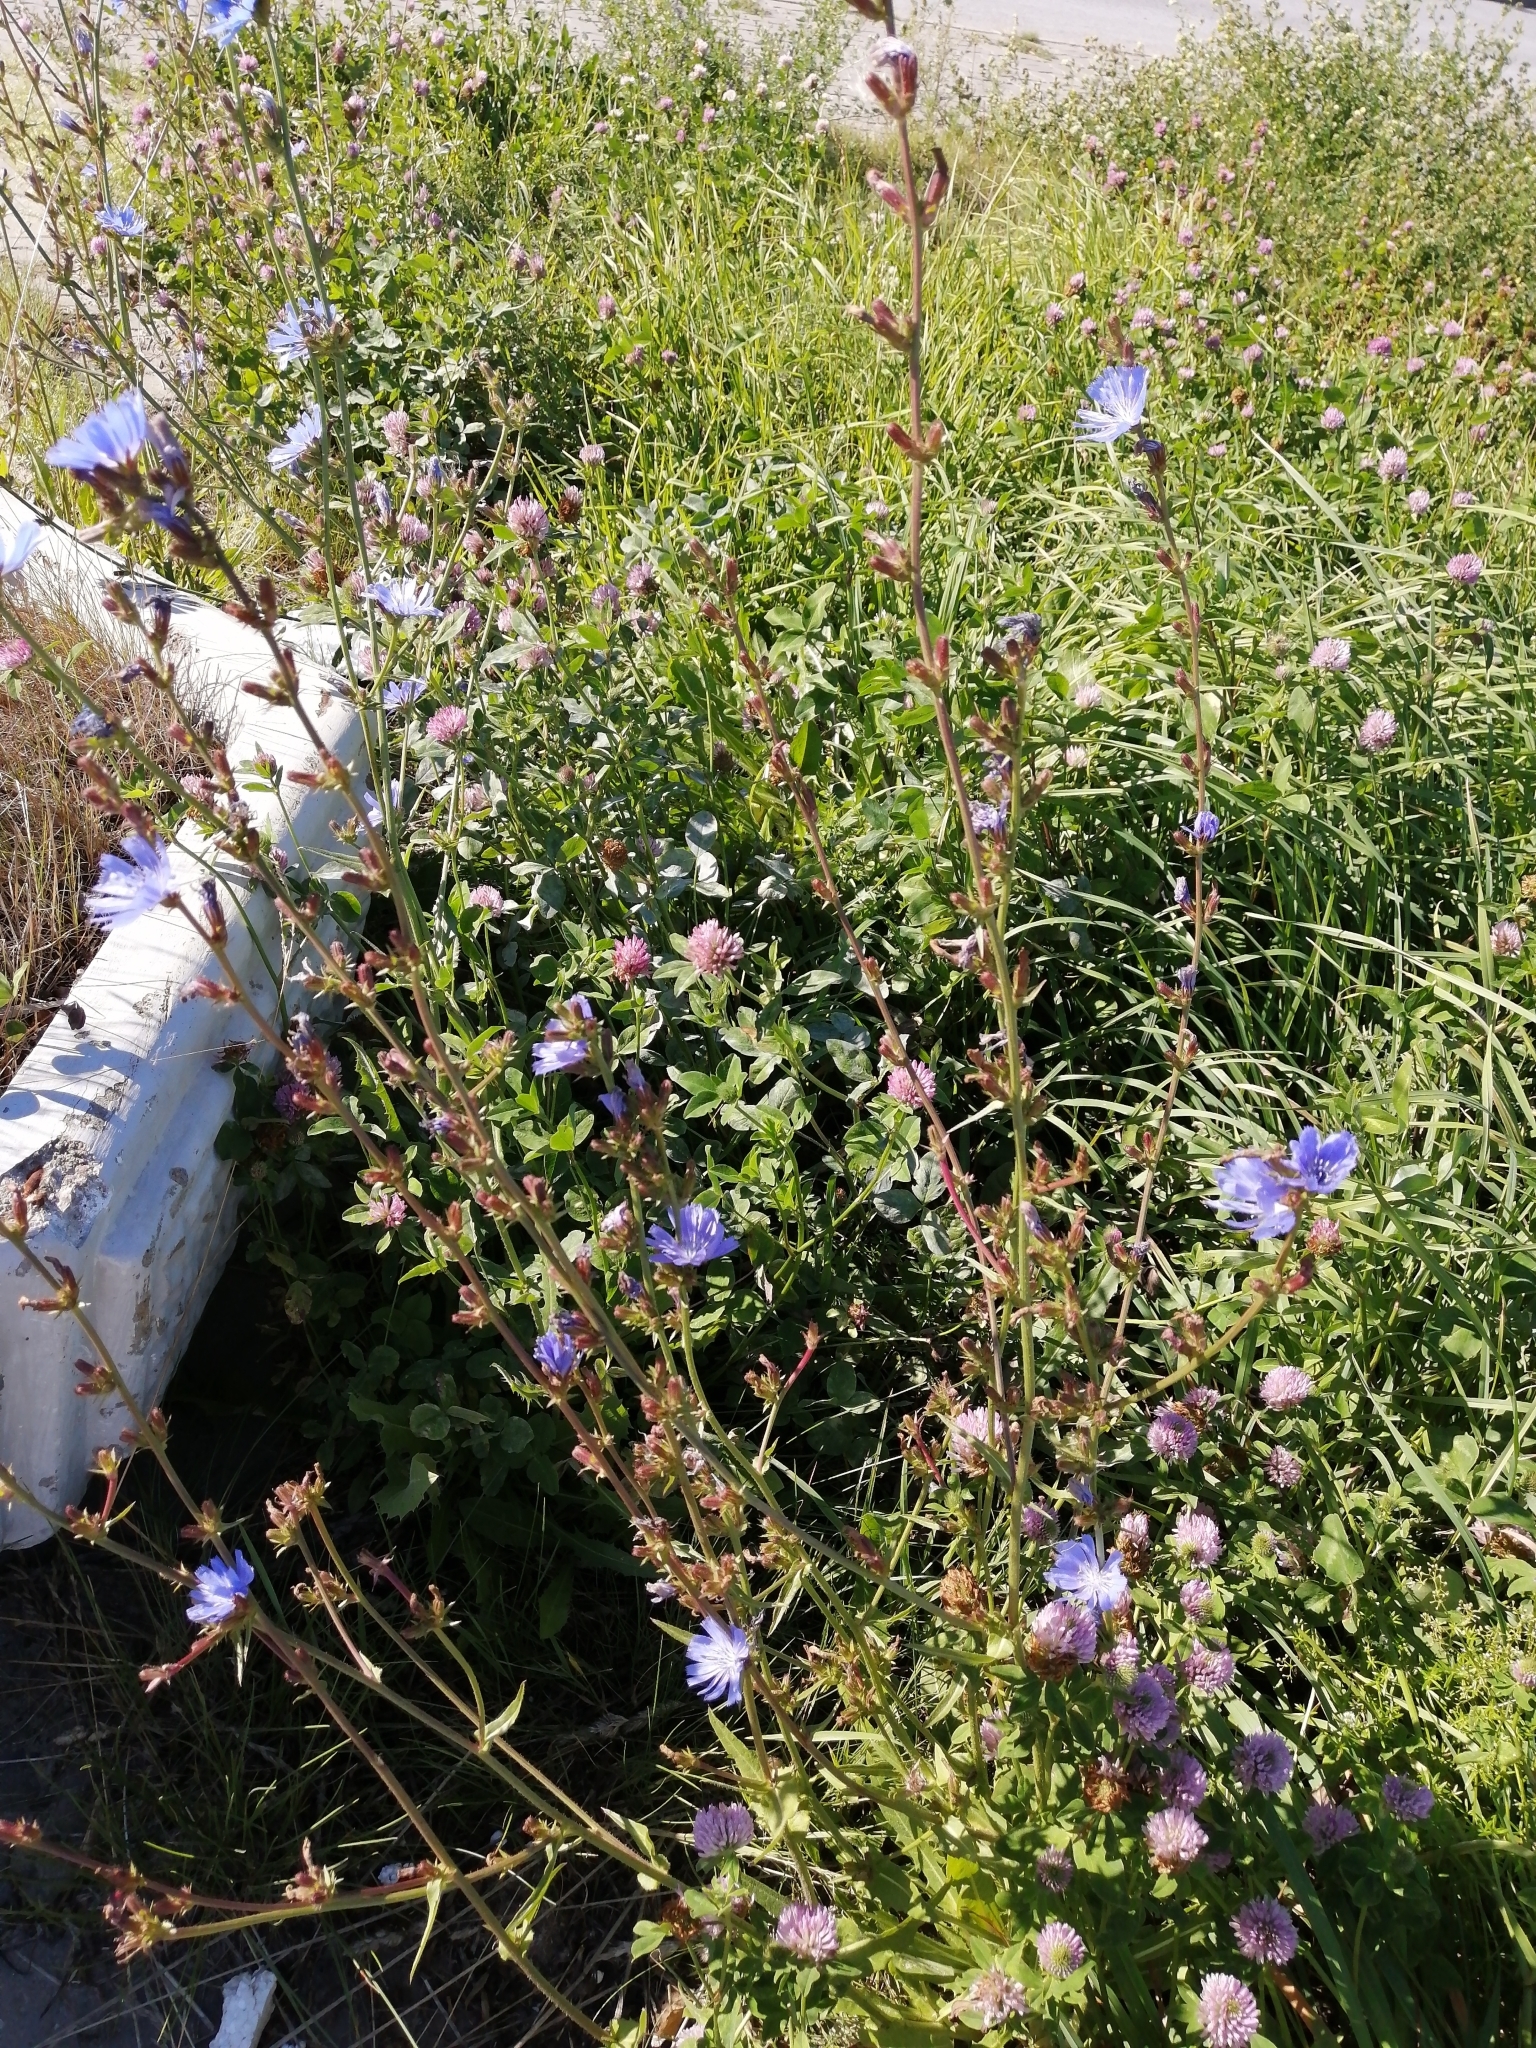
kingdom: Plantae
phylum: Tracheophyta
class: Magnoliopsida
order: Asterales
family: Asteraceae
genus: Cichorium
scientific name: Cichorium intybus
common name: Chicory
